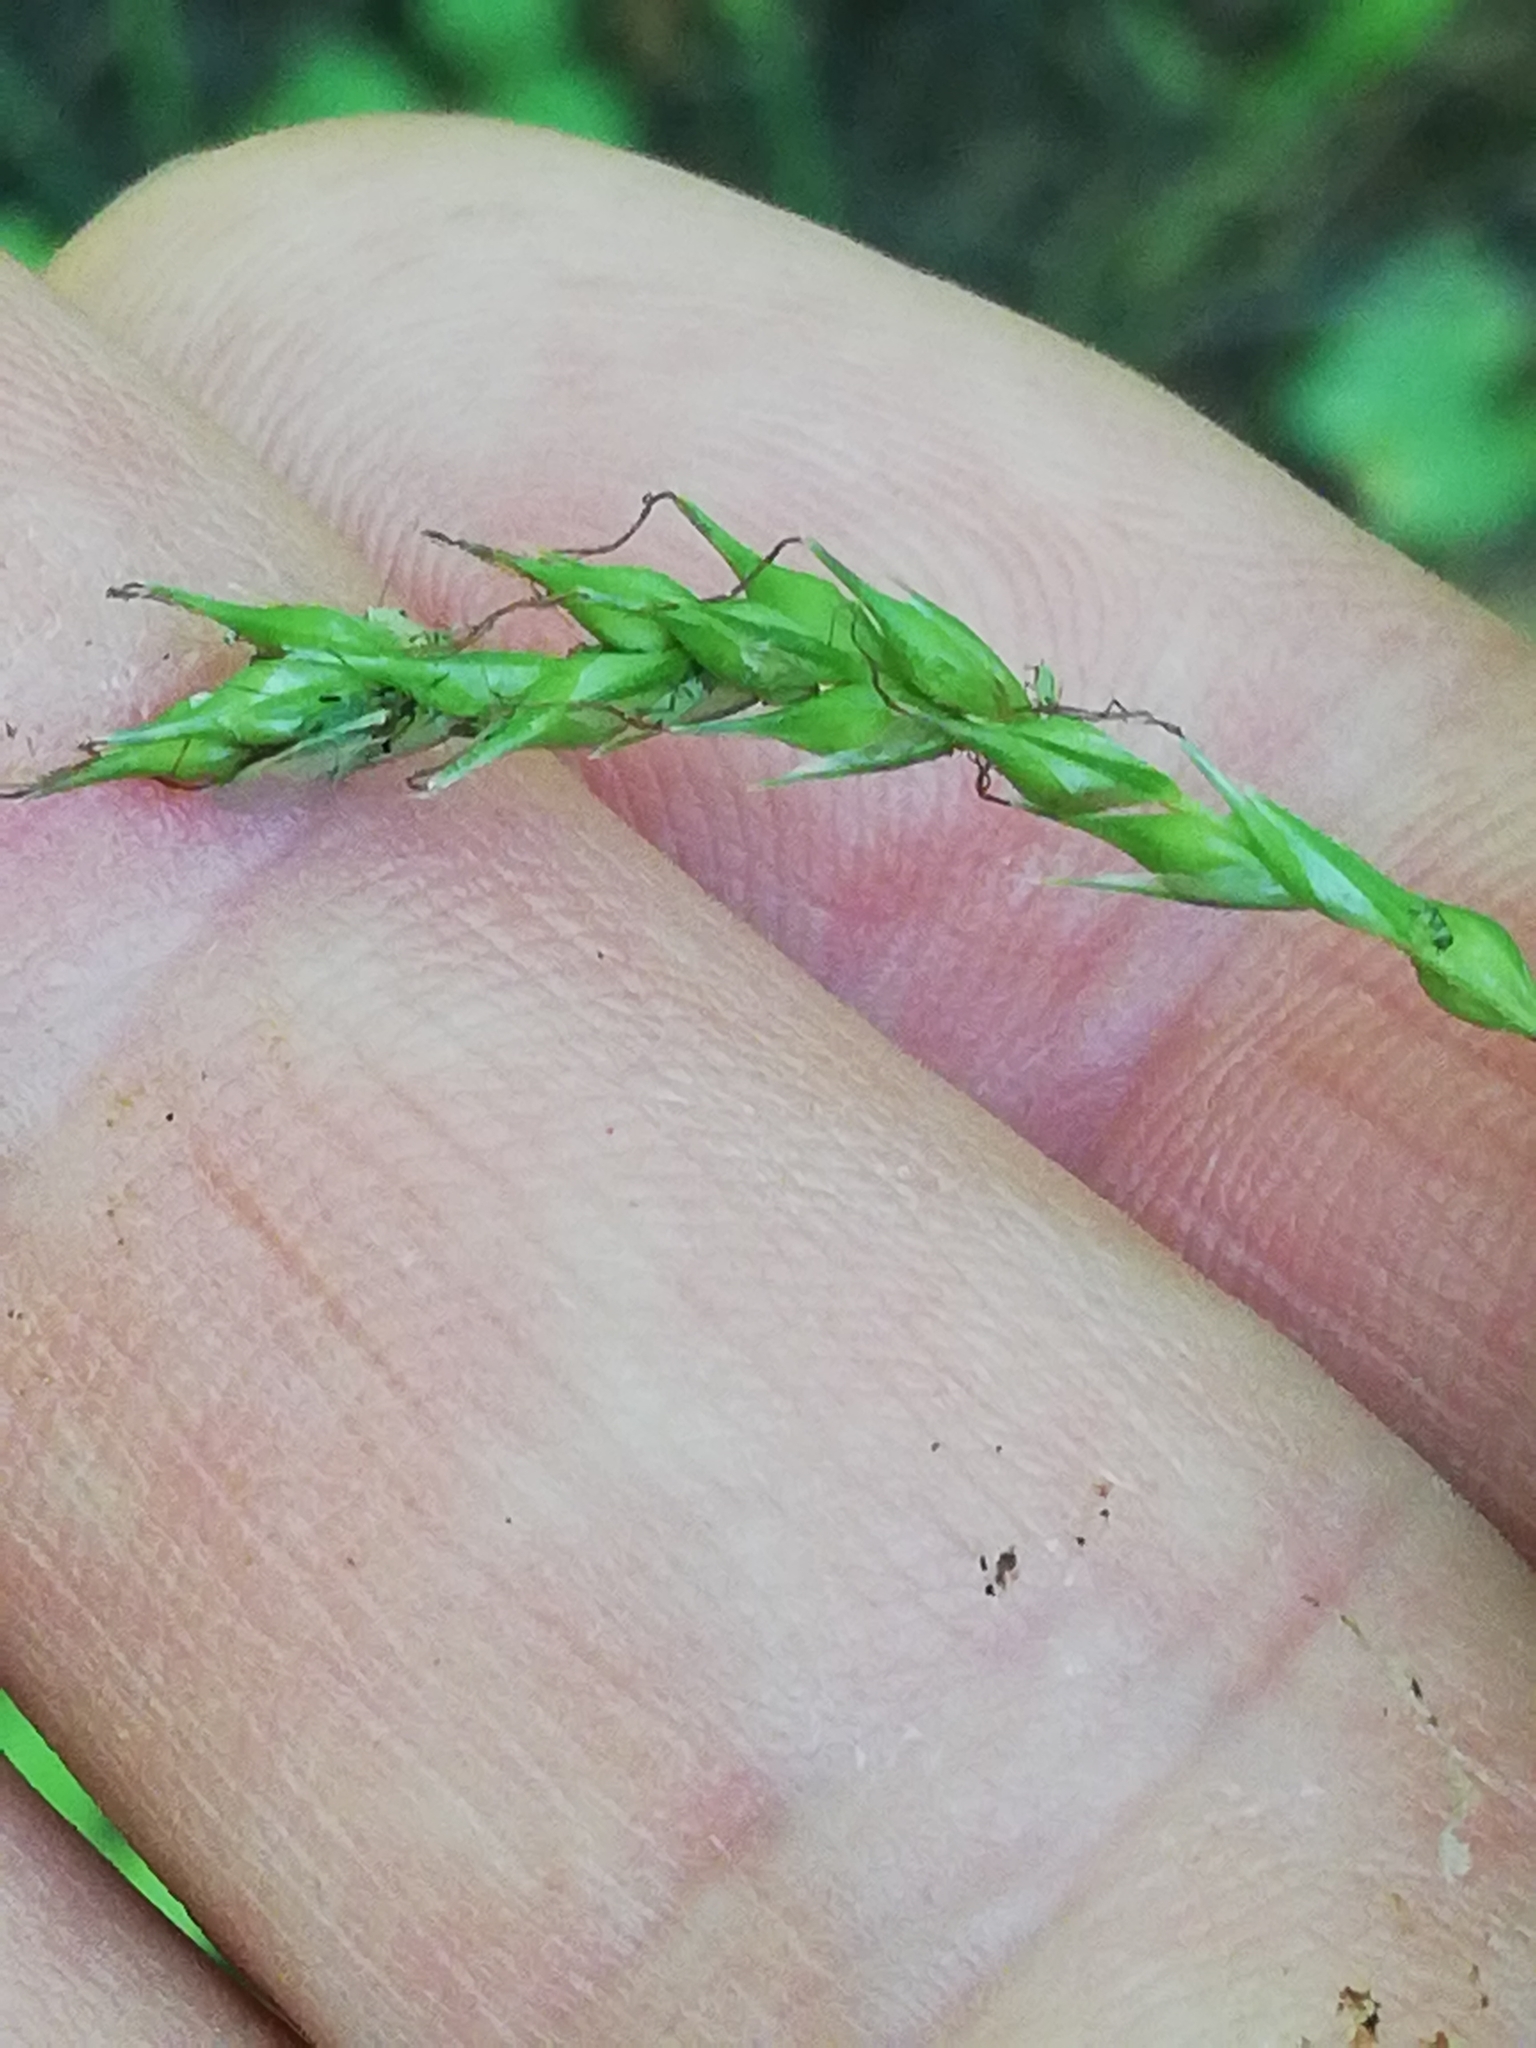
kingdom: Plantae
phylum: Tracheophyta
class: Liliopsida
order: Poales
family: Cyperaceae
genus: Carex
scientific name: Carex sylvatica
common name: Wood-sedge
